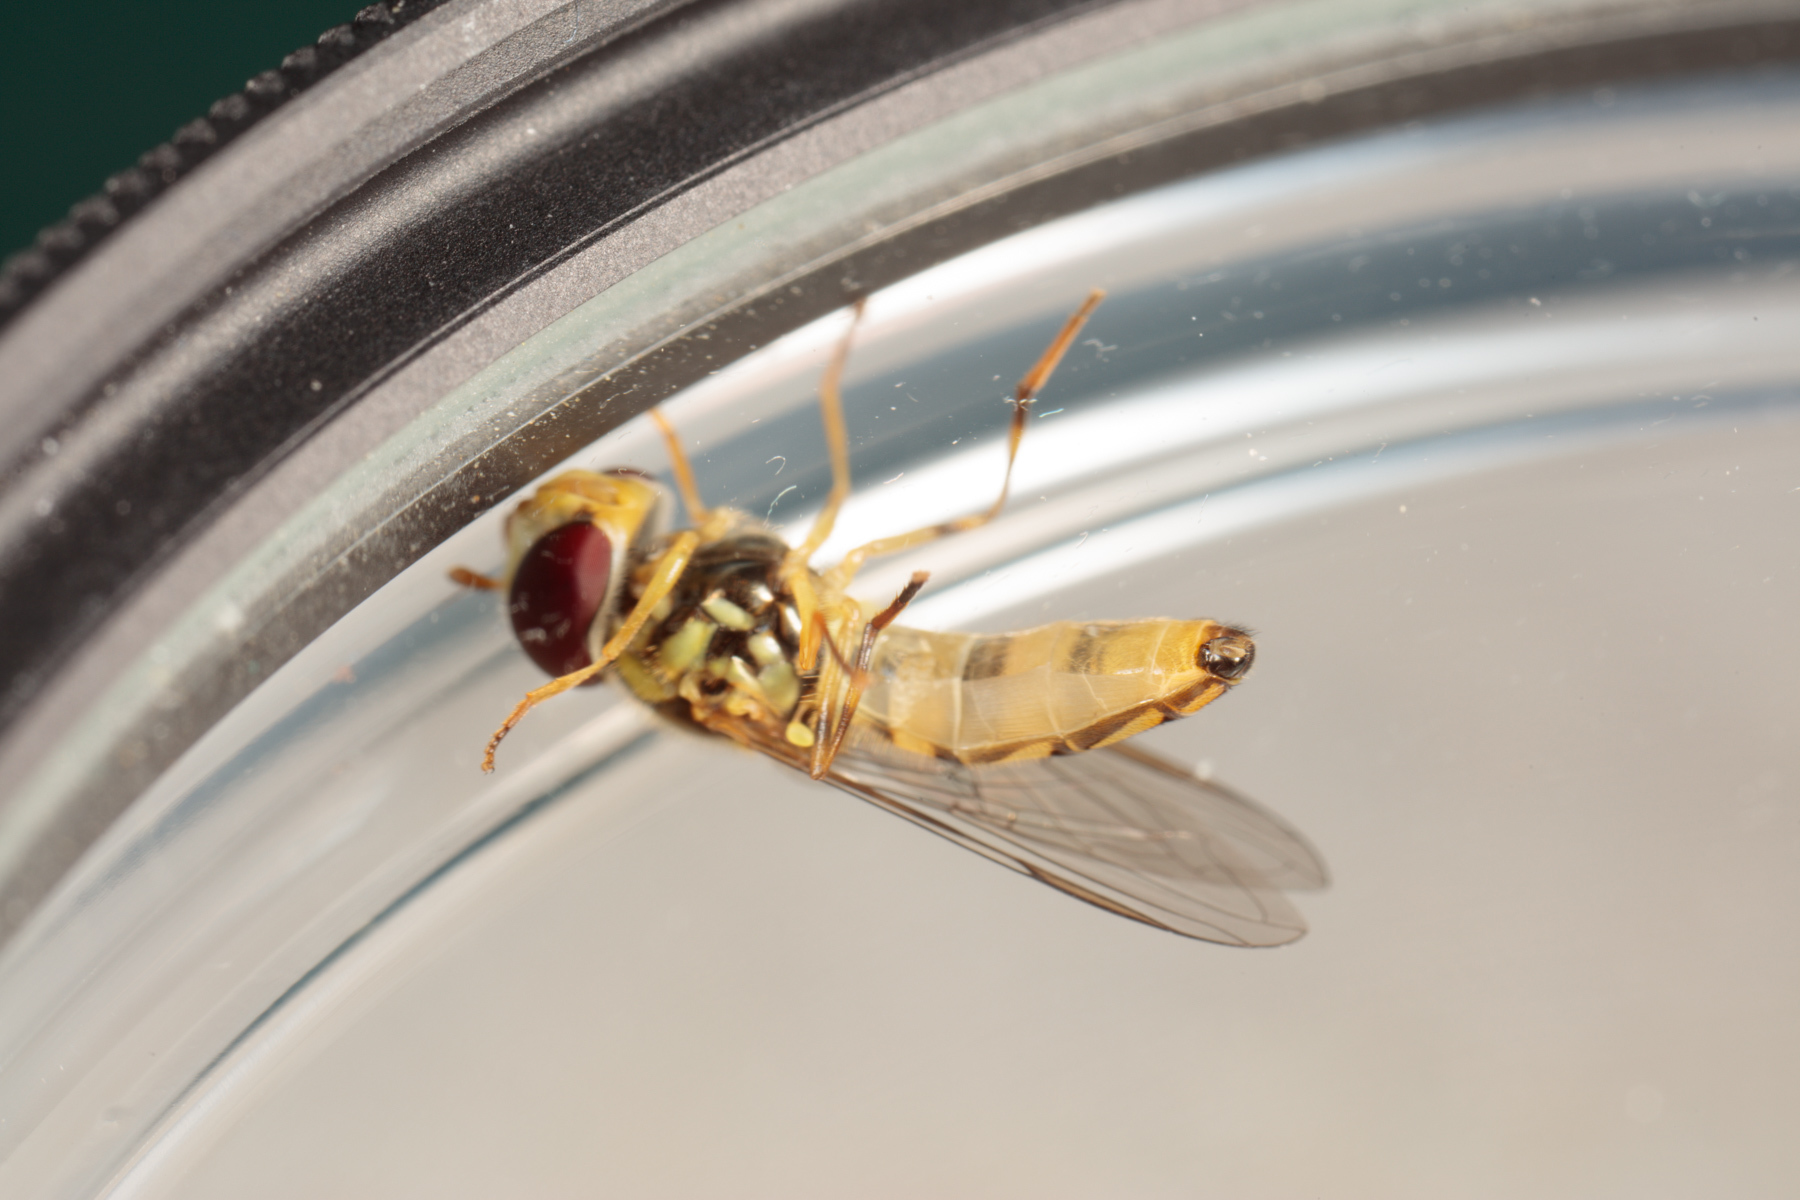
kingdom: Animalia
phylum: Arthropoda
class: Insecta
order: Diptera
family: Syrphidae
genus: Allograpta
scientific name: Allograpta obliqua
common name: Common oblique syrphid
